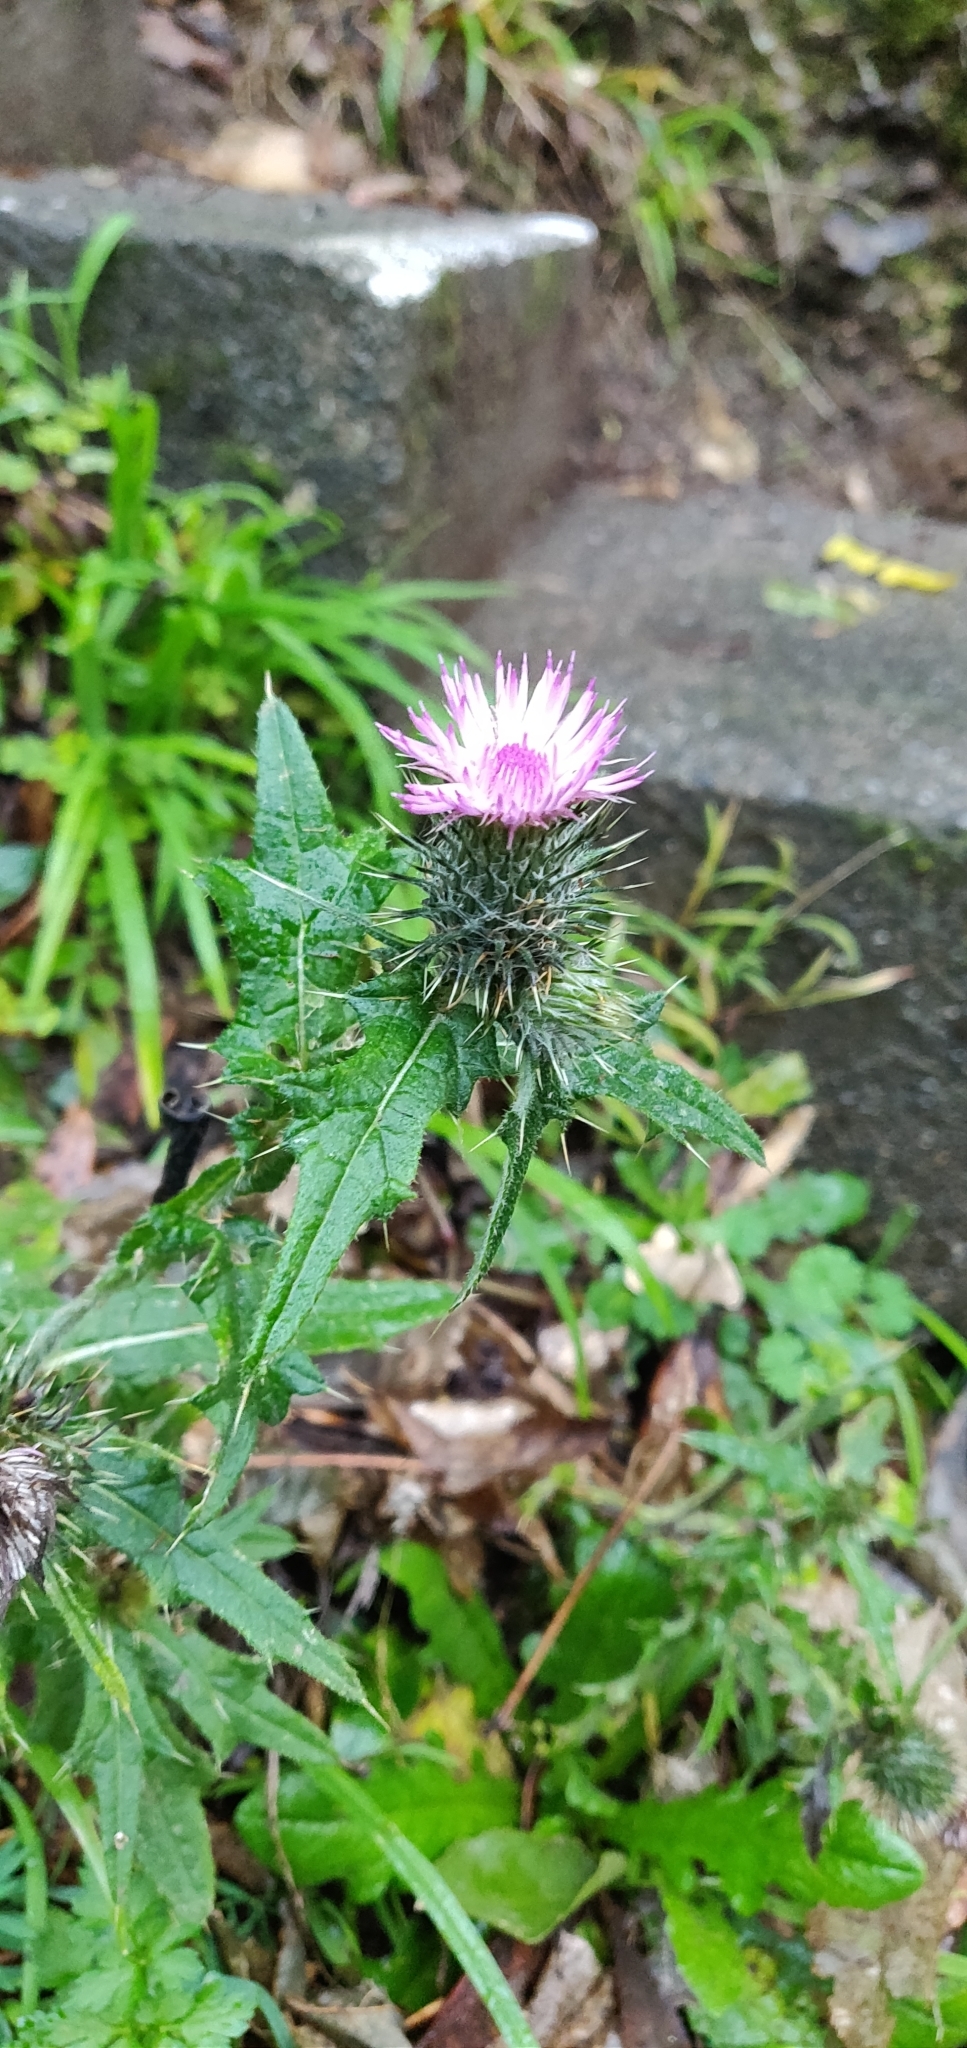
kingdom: Plantae
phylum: Tracheophyta
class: Magnoliopsida
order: Asterales
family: Asteraceae
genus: Cirsium
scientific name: Cirsium vulgare
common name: Bull thistle
